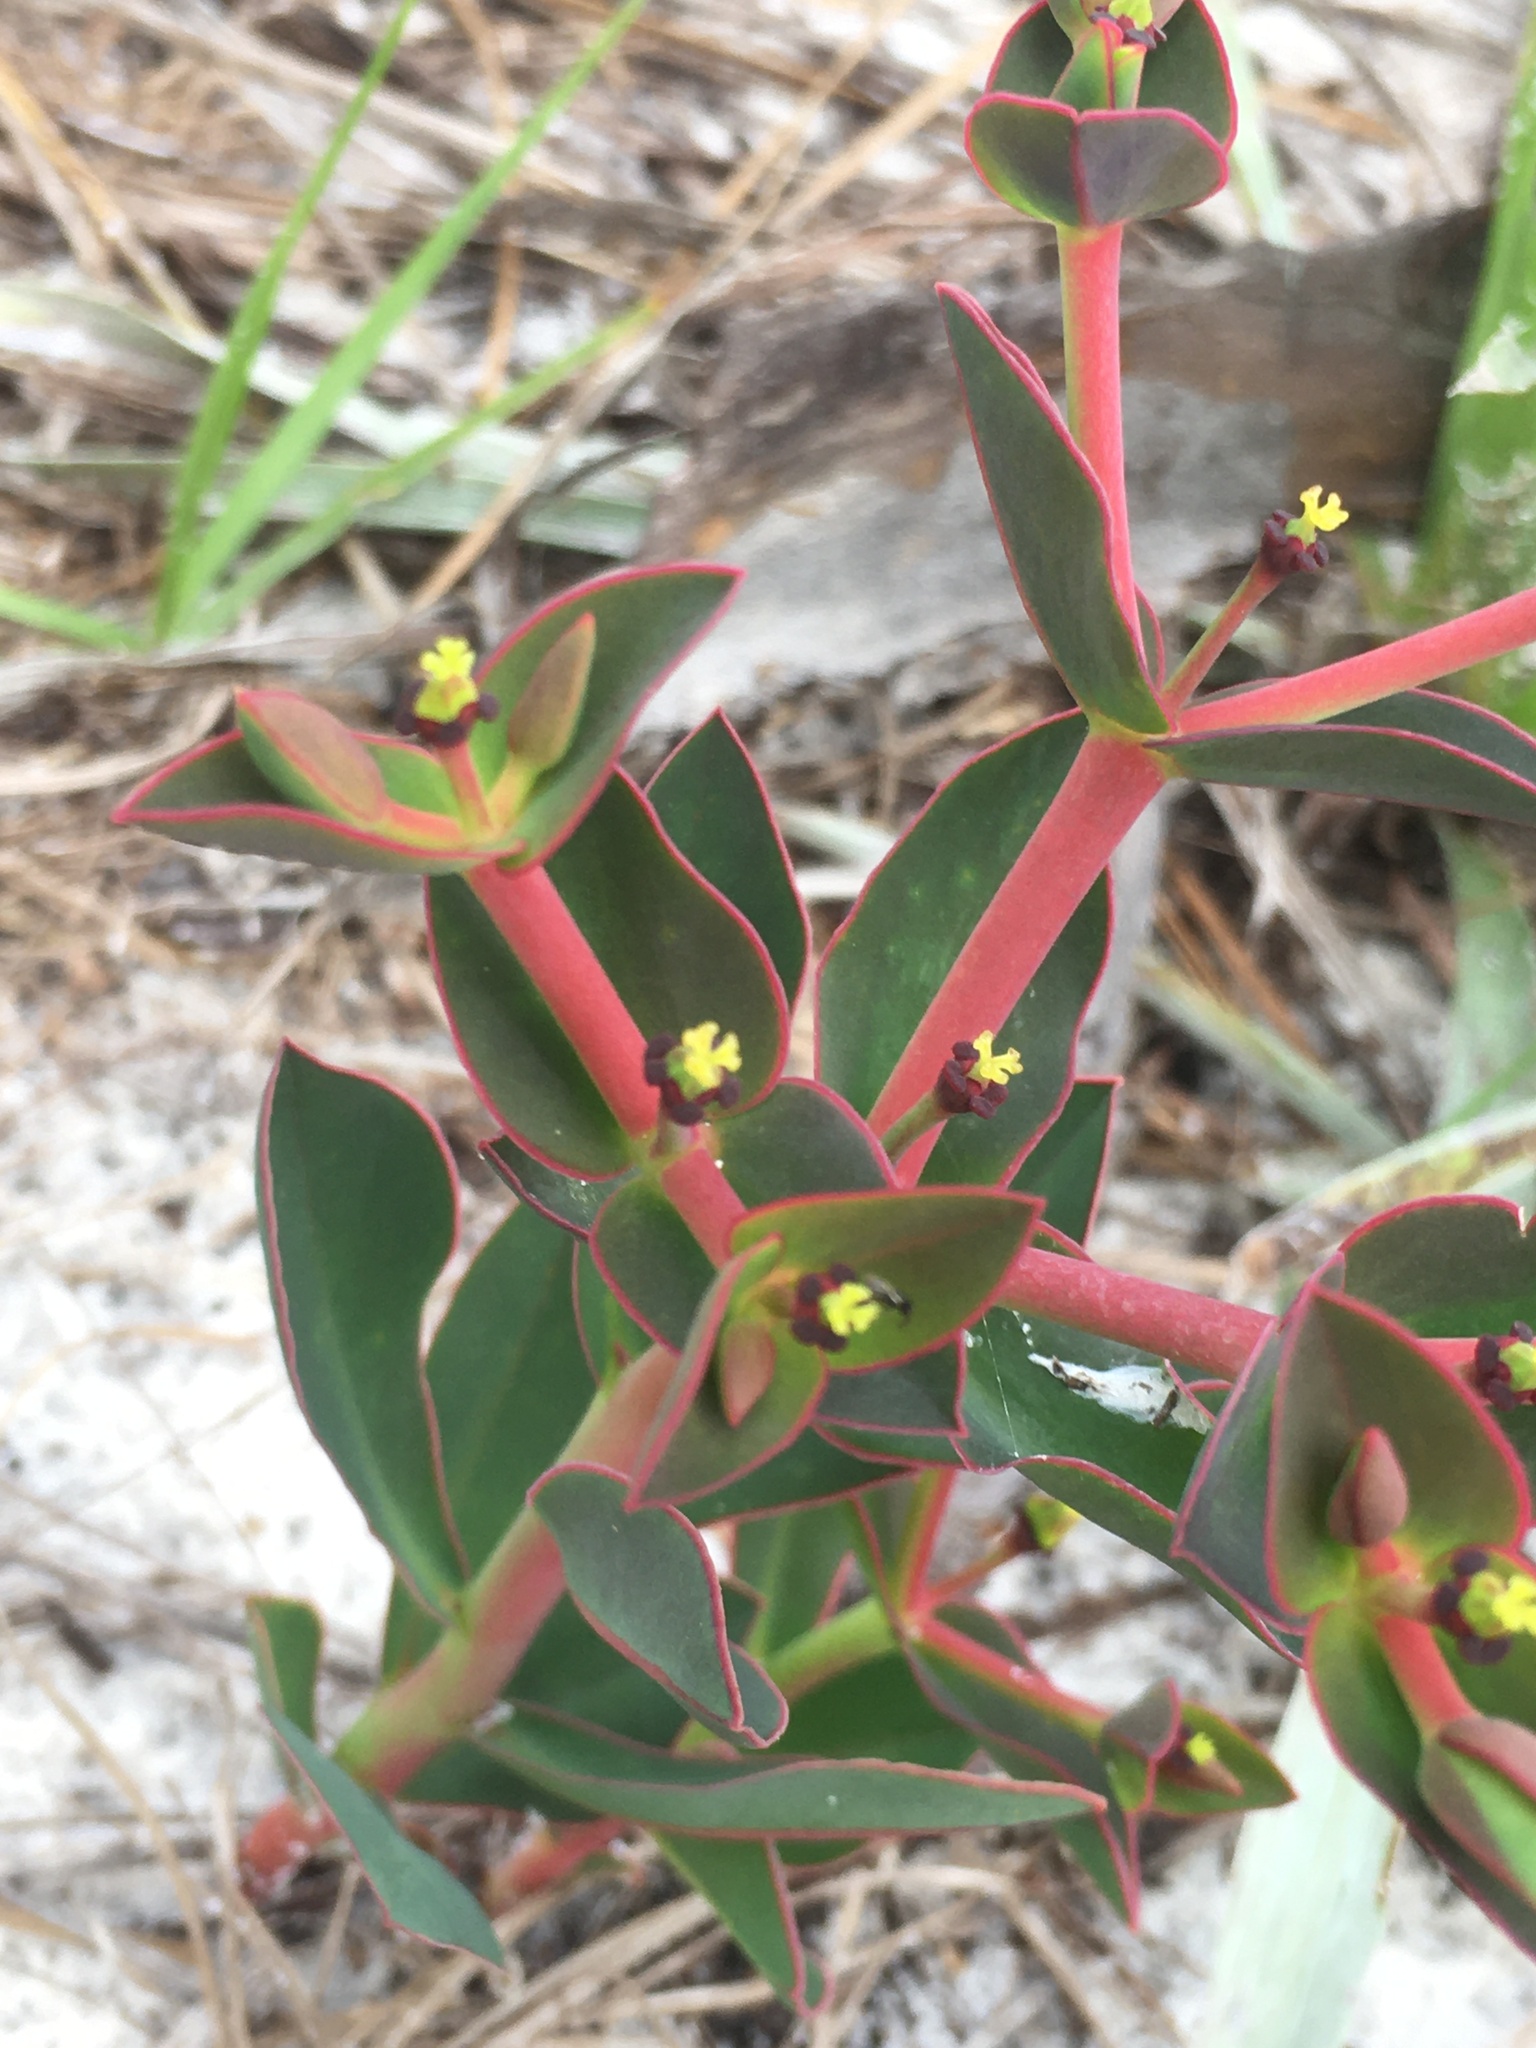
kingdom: Plantae
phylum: Tracheophyta
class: Magnoliopsida
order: Malpighiales
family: Euphorbiaceae
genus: Euphorbia
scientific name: Euphorbia telephioides
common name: Telephus spurge
